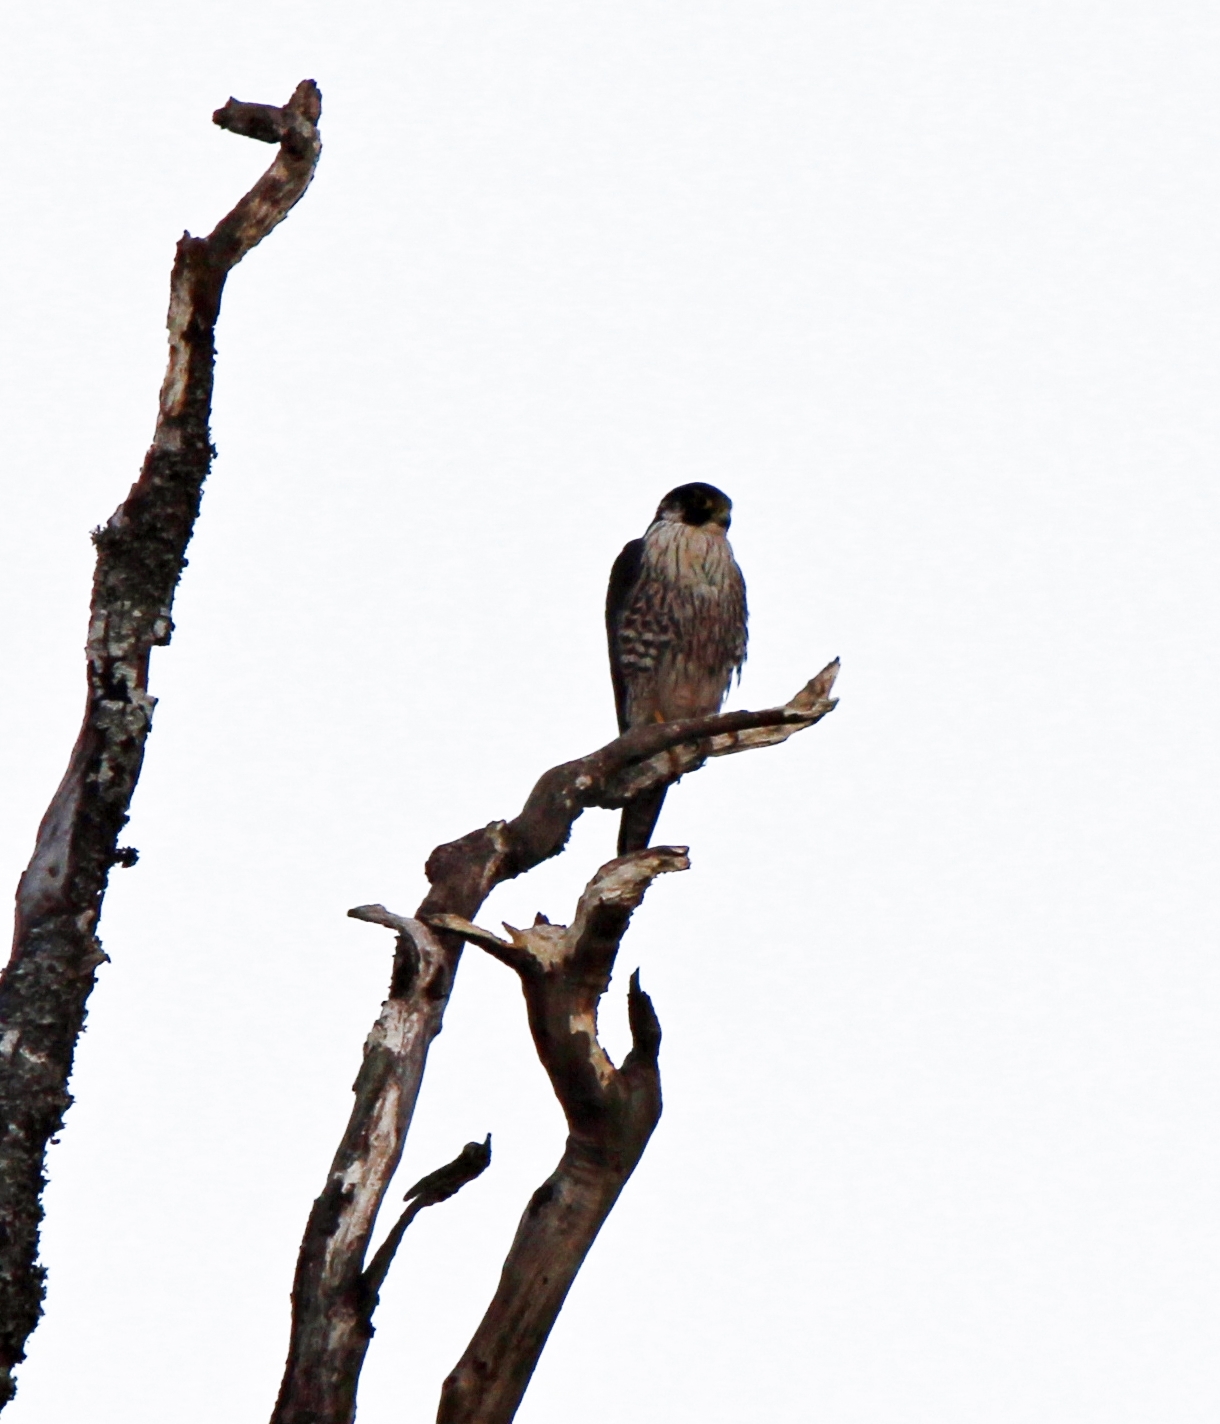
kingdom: Animalia
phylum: Chordata
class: Aves
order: Falconiformes
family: Falconidae
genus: Falco
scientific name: Falco peregrinus
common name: Peregrine falcon
